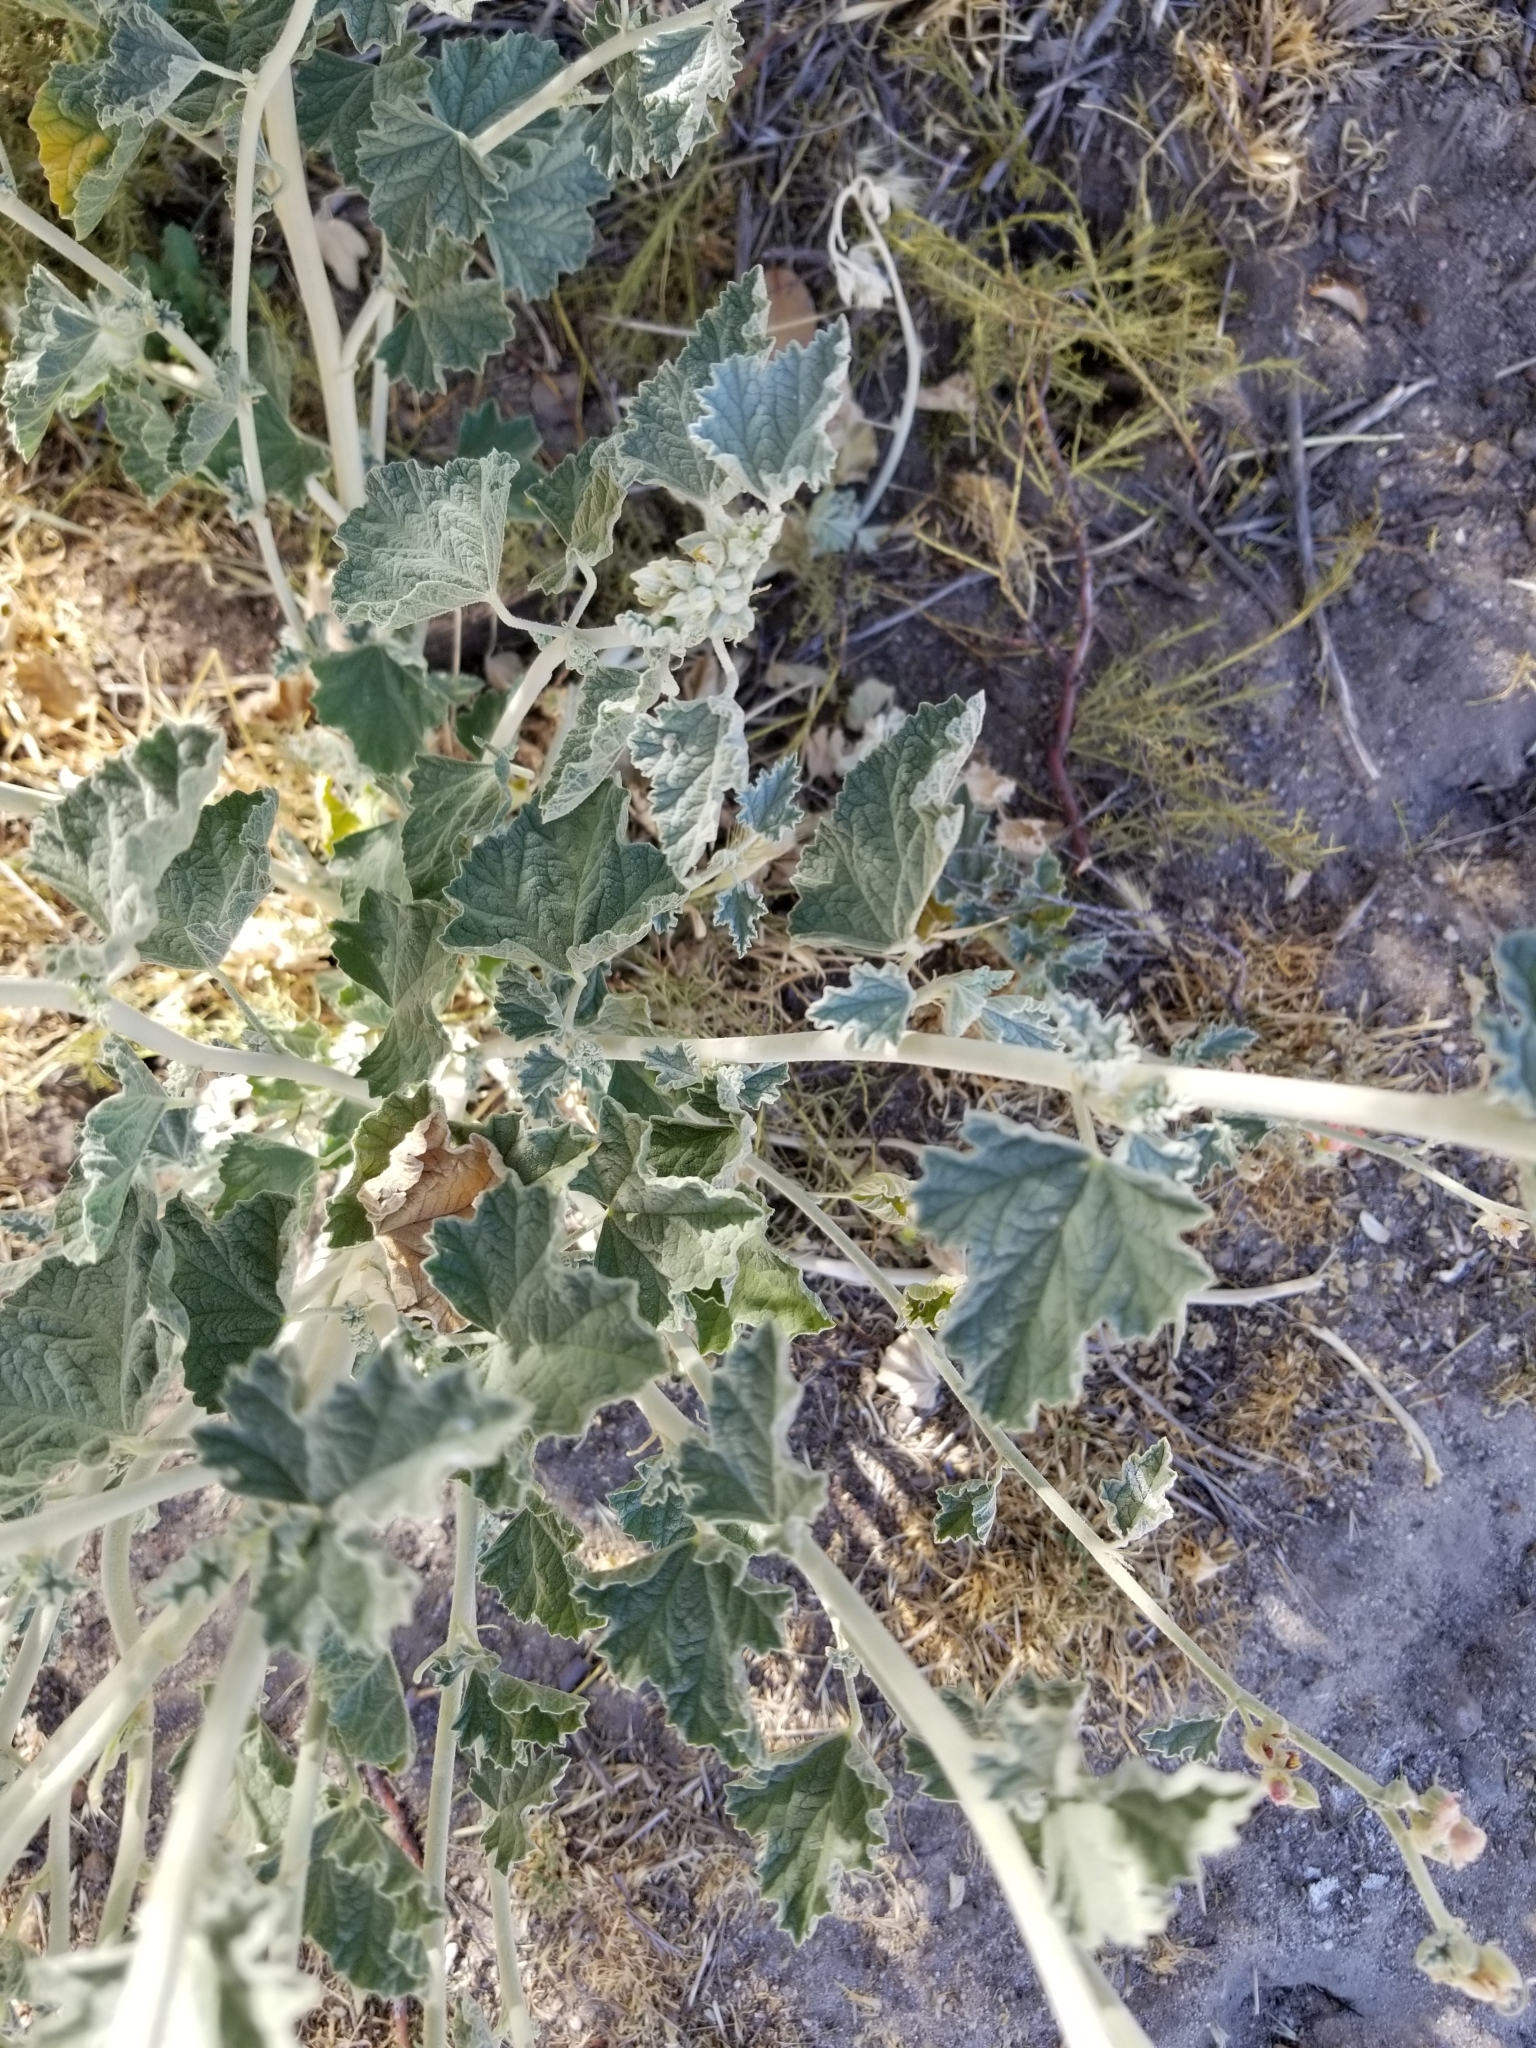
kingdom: Plantae
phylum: Tracheophyta
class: Magnoliopsida
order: Malvales
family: Malvaceae
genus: Sphaeralcea
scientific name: Sphaeralcea ambigua
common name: Apricot globe-mallow
